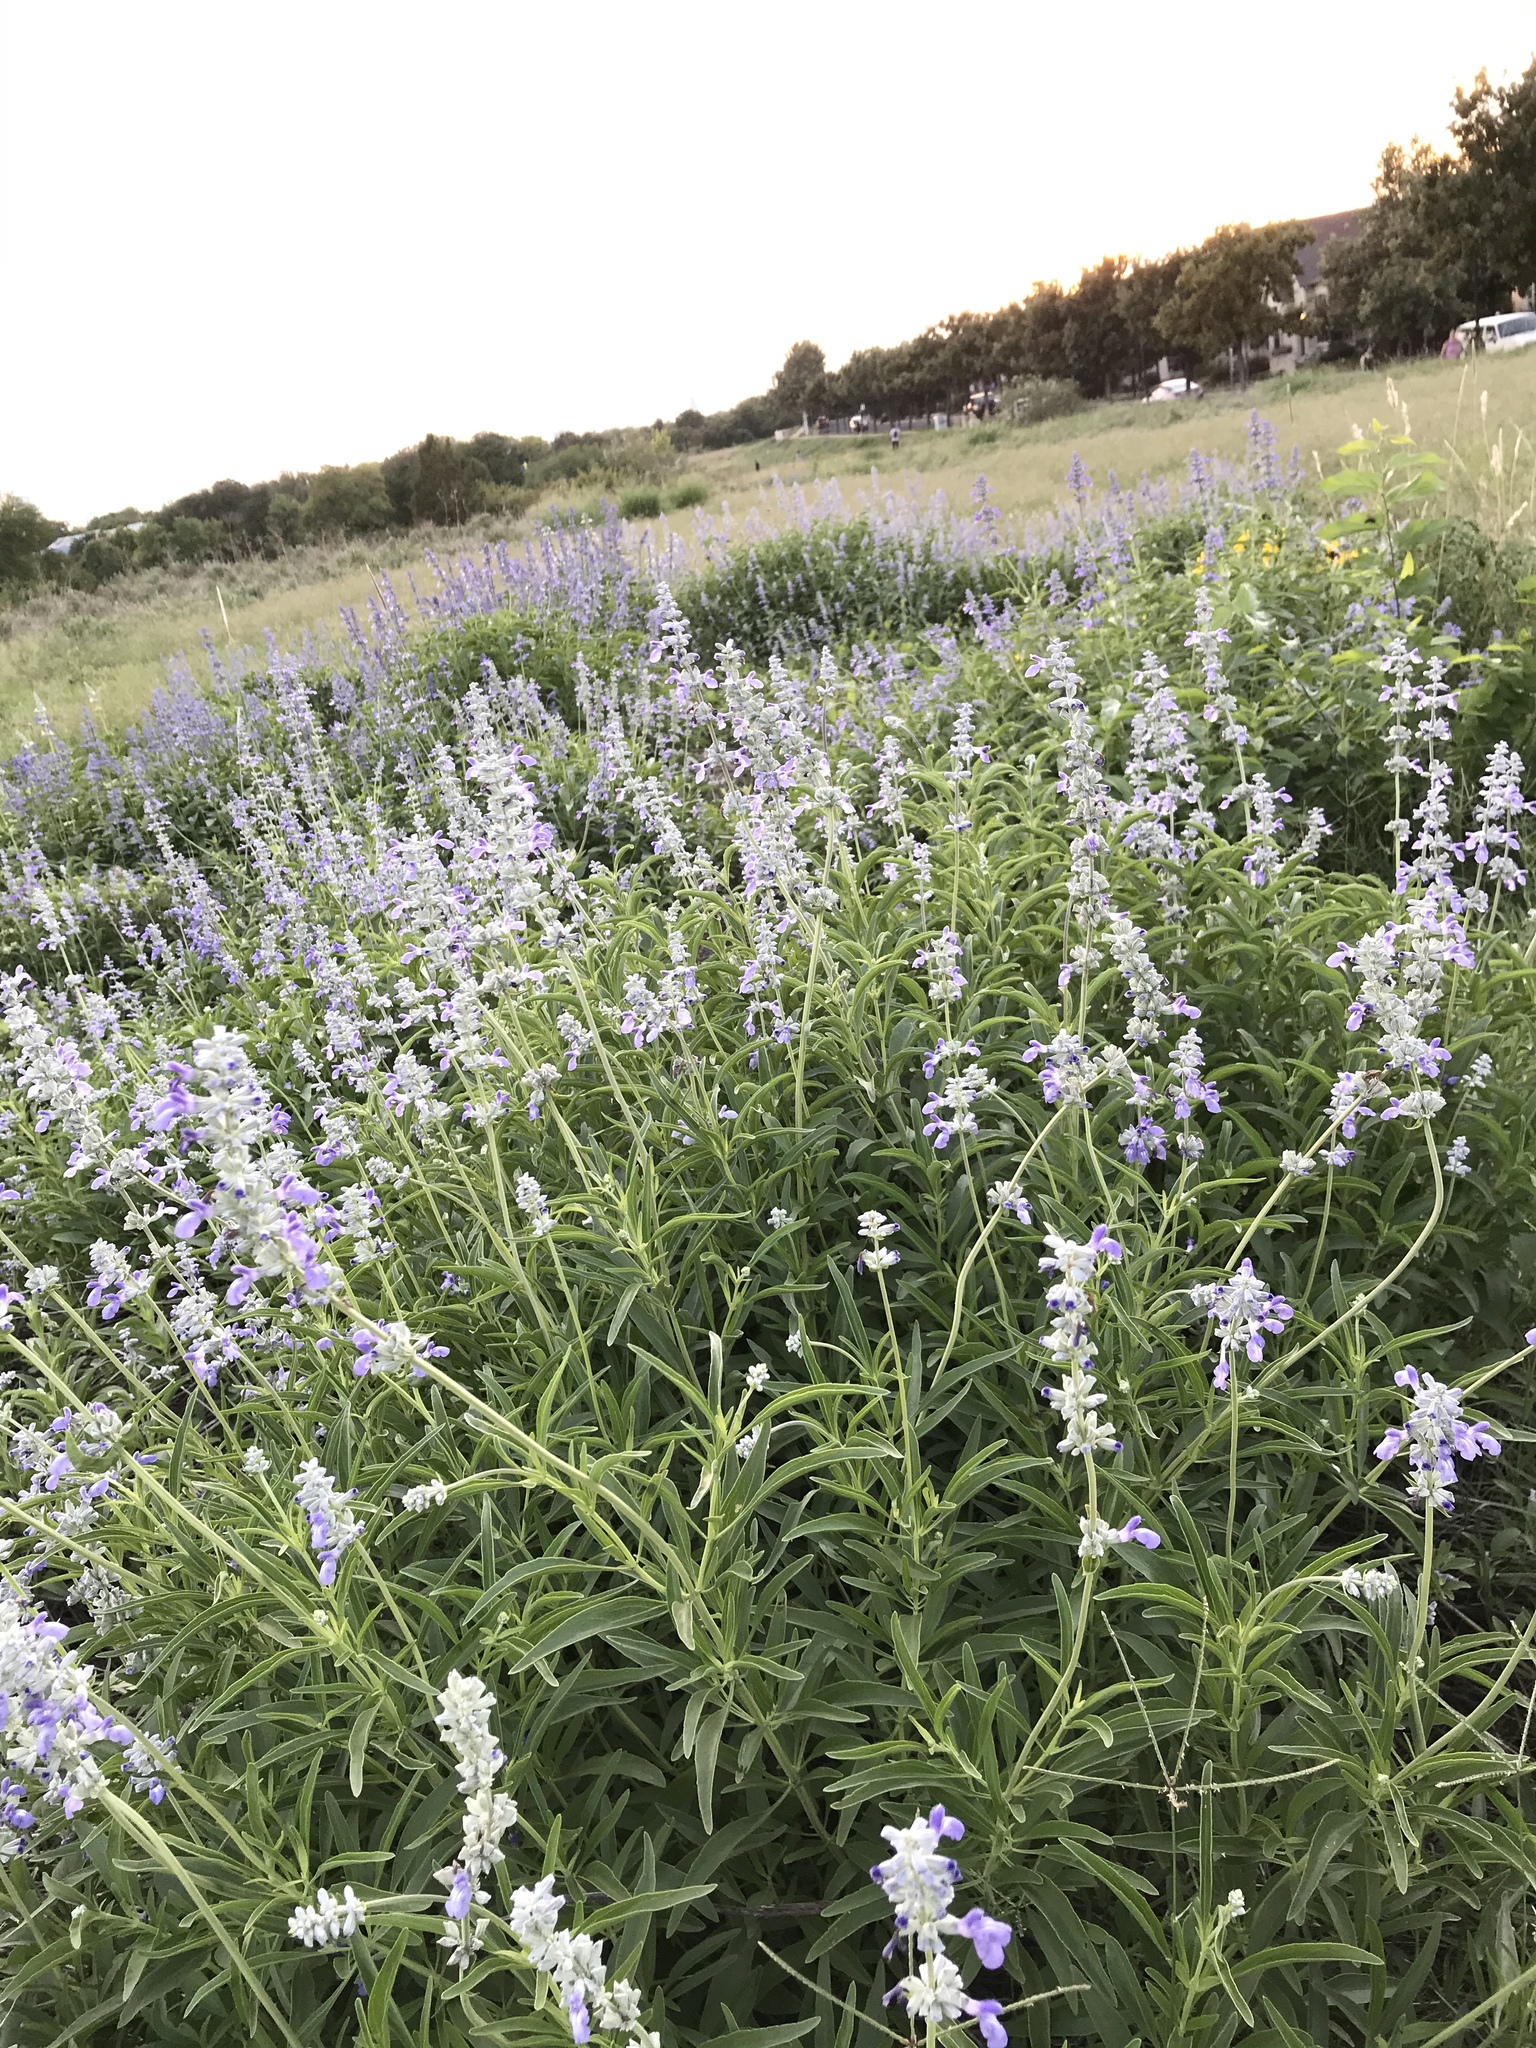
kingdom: Plantae
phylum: Tracheophyta
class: Magnoliopsida
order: Lamiales
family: Lamiaceae
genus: Salvia
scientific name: Salvia farinacea
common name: Mealy sage
